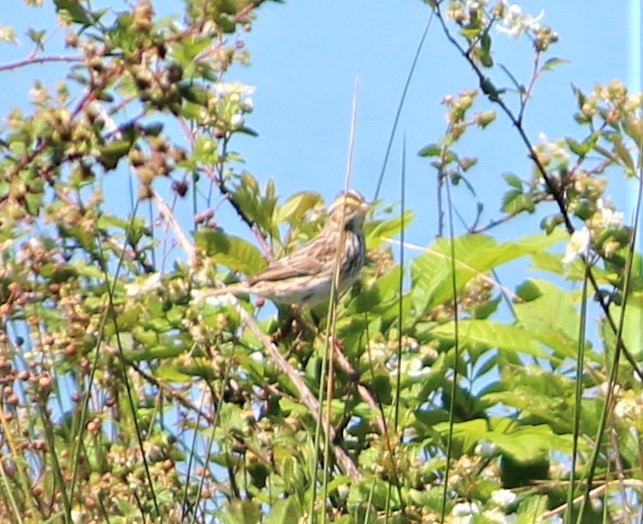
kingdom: Animalia
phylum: Chordata
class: Aves
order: Passeriformes
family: Passerellidae
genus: Passerculus
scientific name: Passerculus sandwichensis
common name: Savannah sparrow
